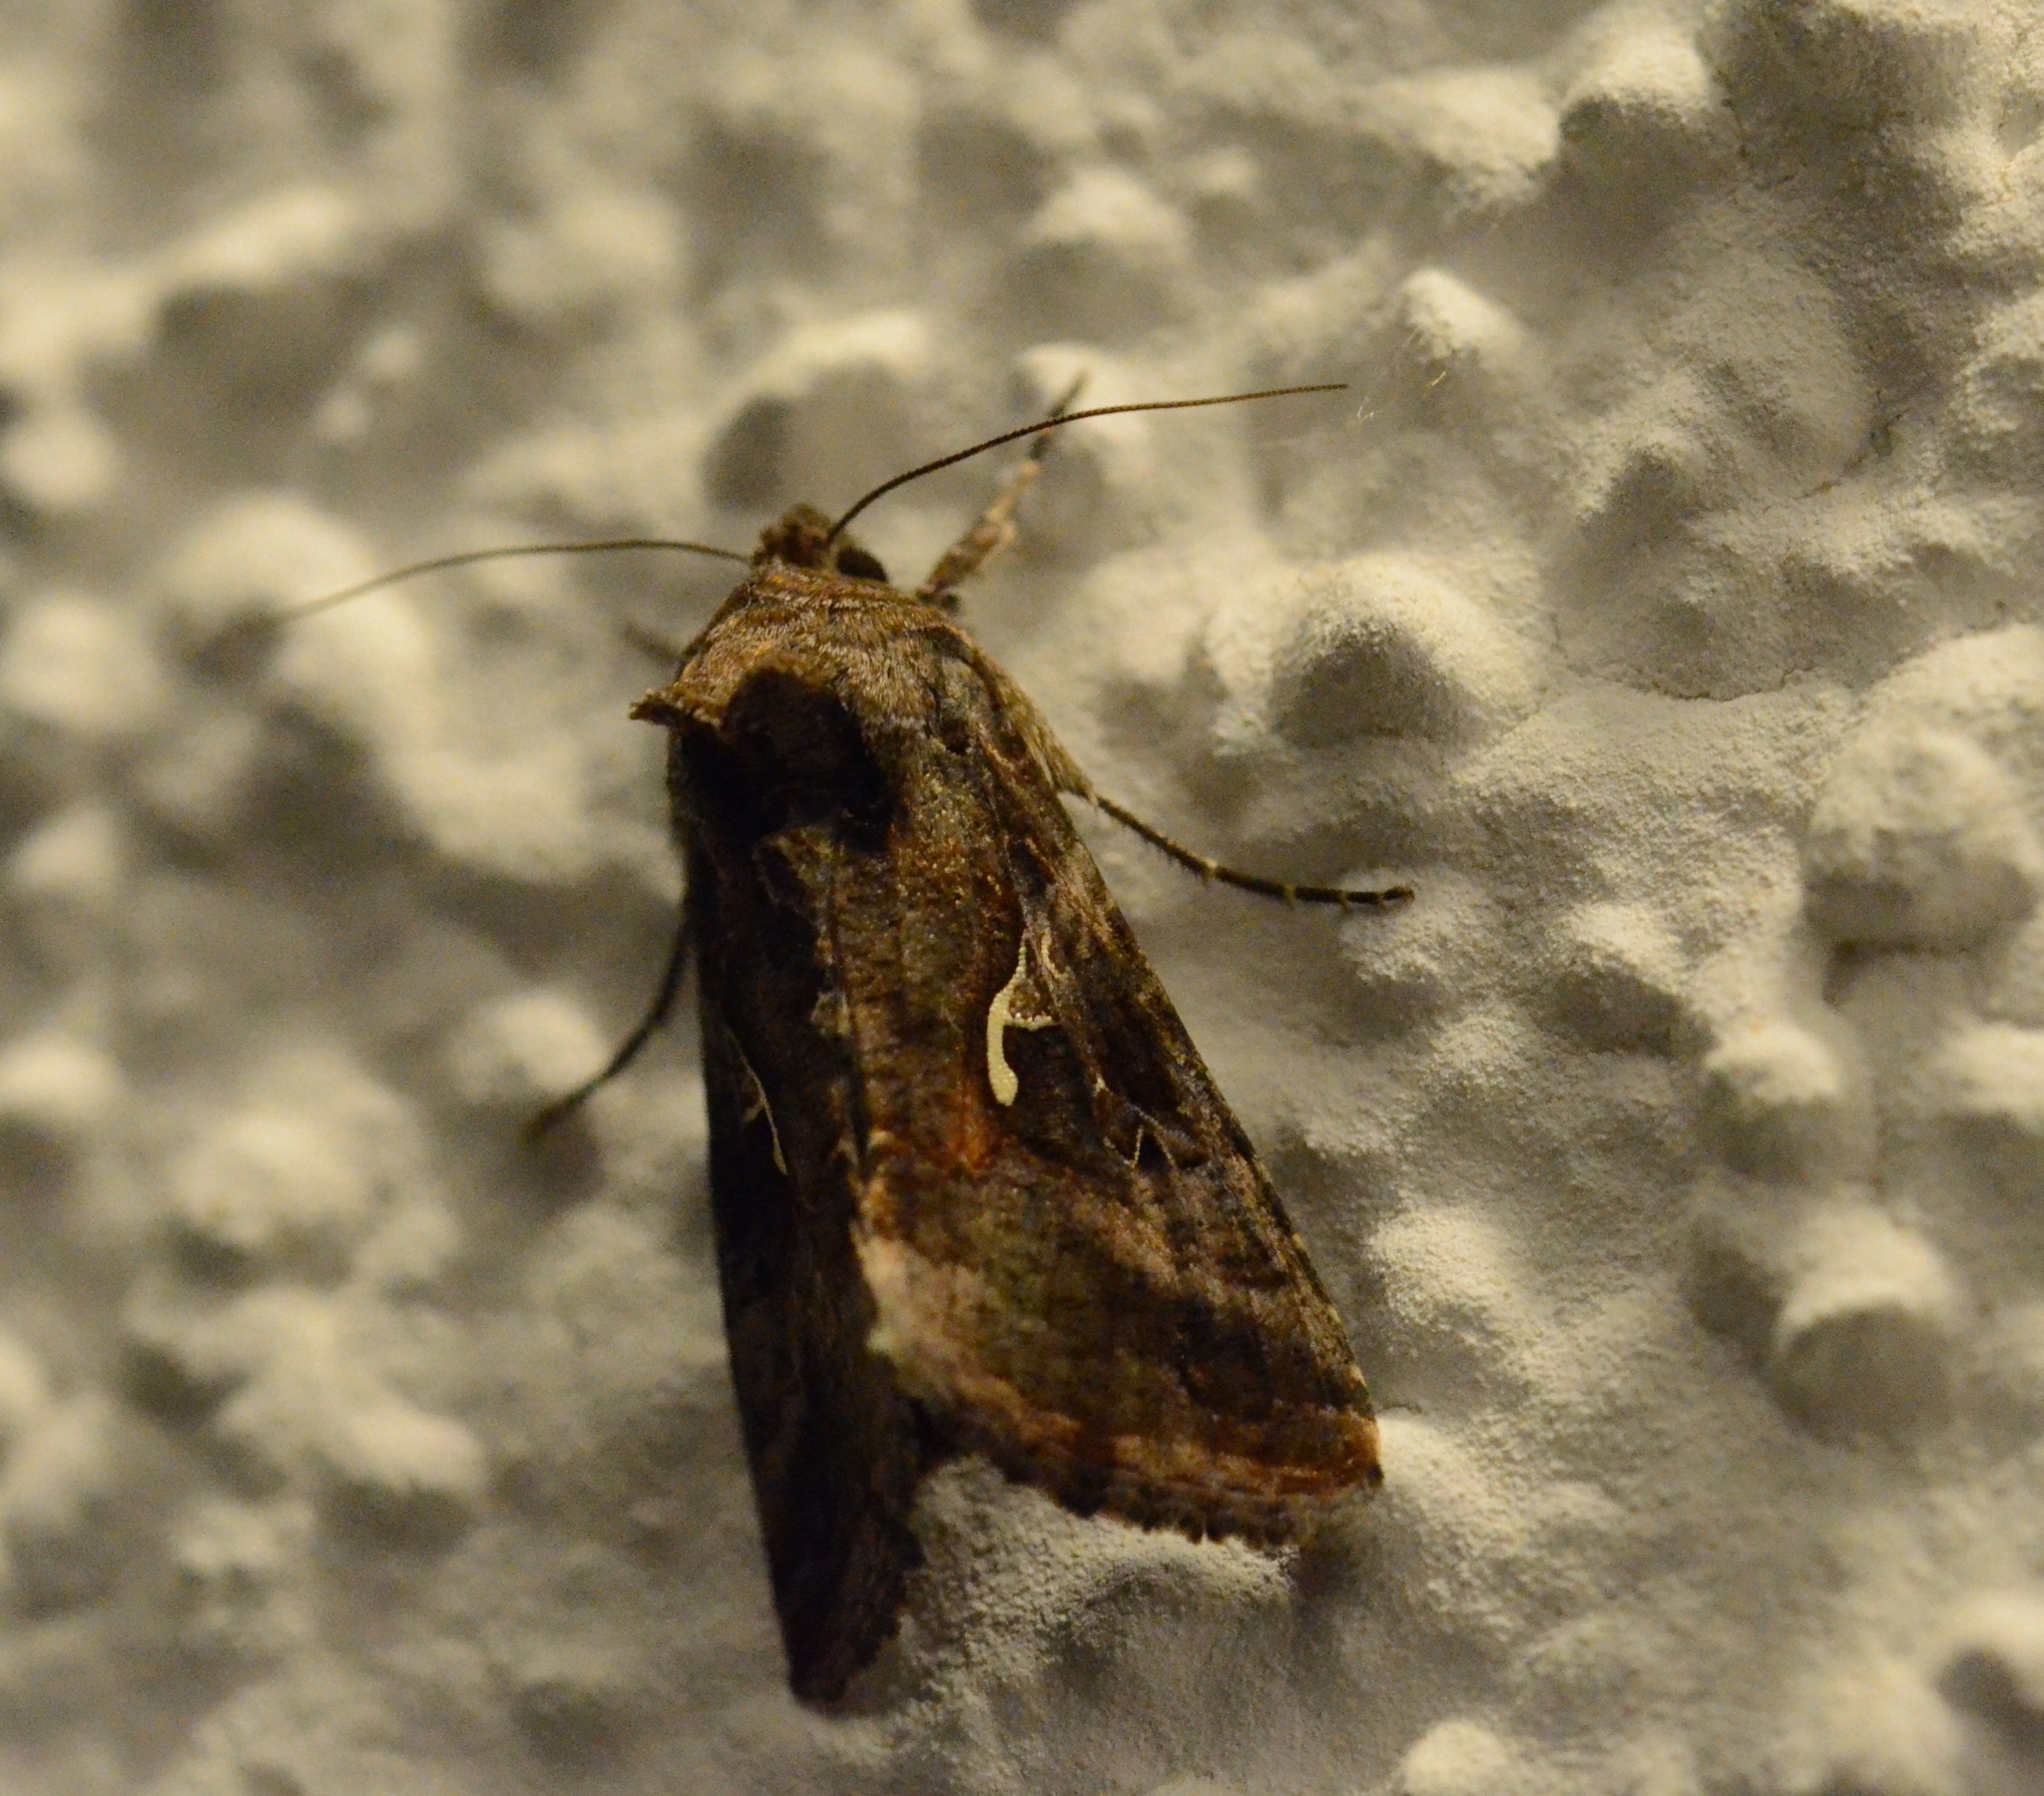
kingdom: Animalia
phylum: Arthropoda
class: Insecta
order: Lepidoptera
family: Noctuidae
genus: Autographa
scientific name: Autographa gamma
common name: Silver y
